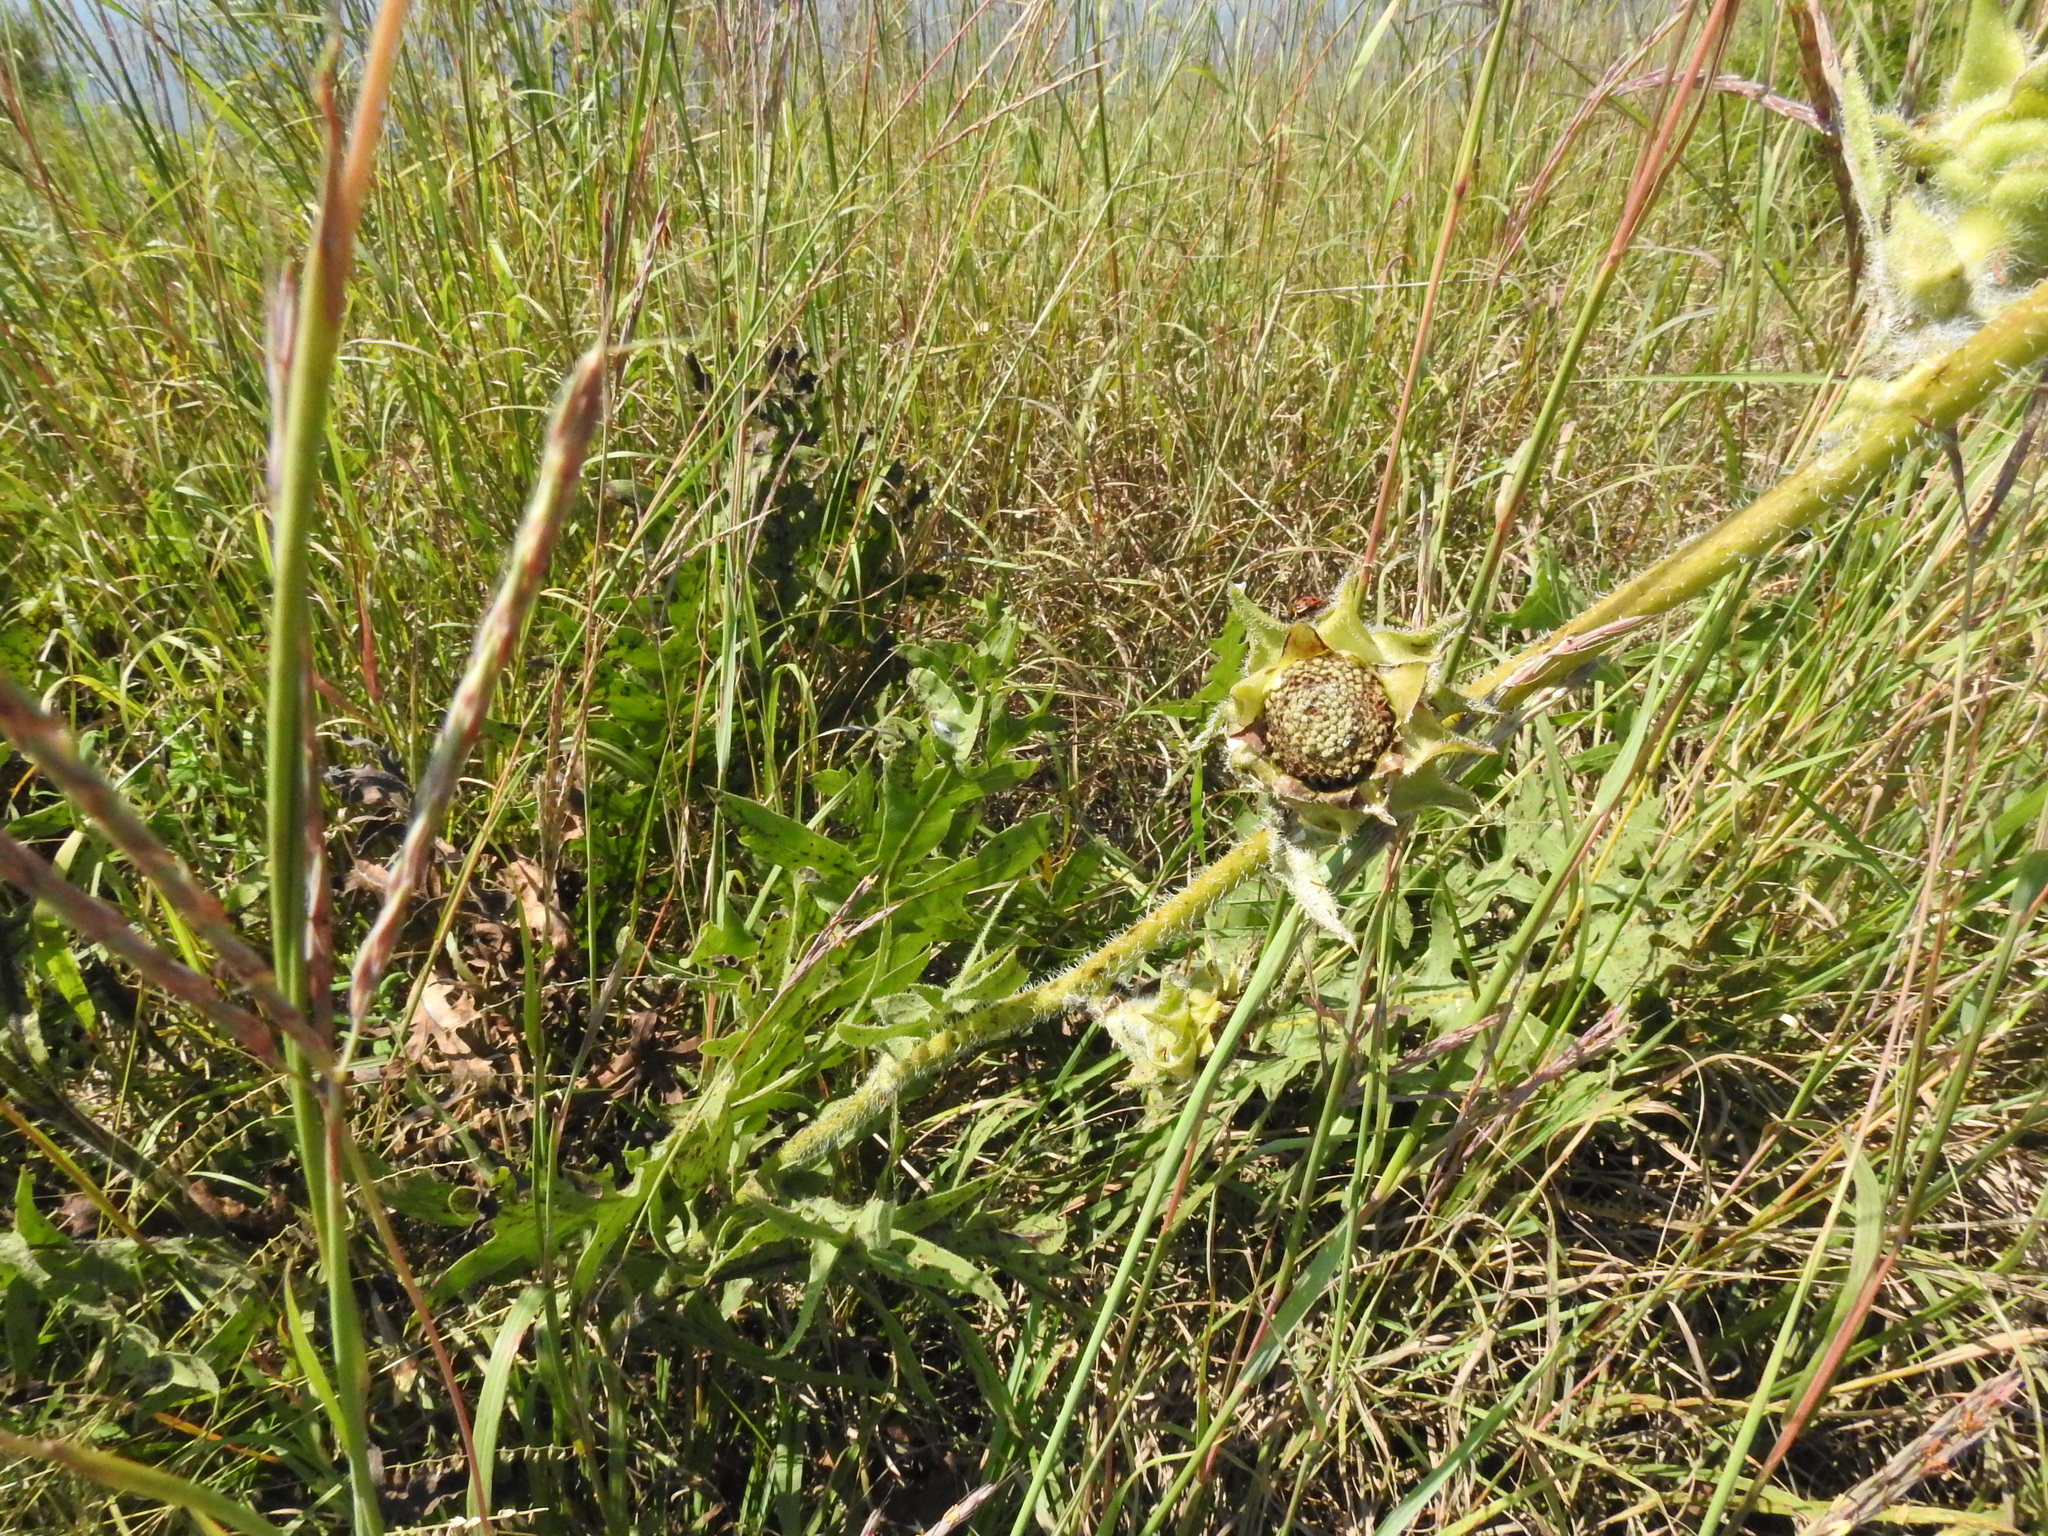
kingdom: Plantae
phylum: Tracheophyta
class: Magnoliopsida
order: Asterales
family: Asteraceae
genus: Silphium
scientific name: Silphium laciniatum
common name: Polarplant
